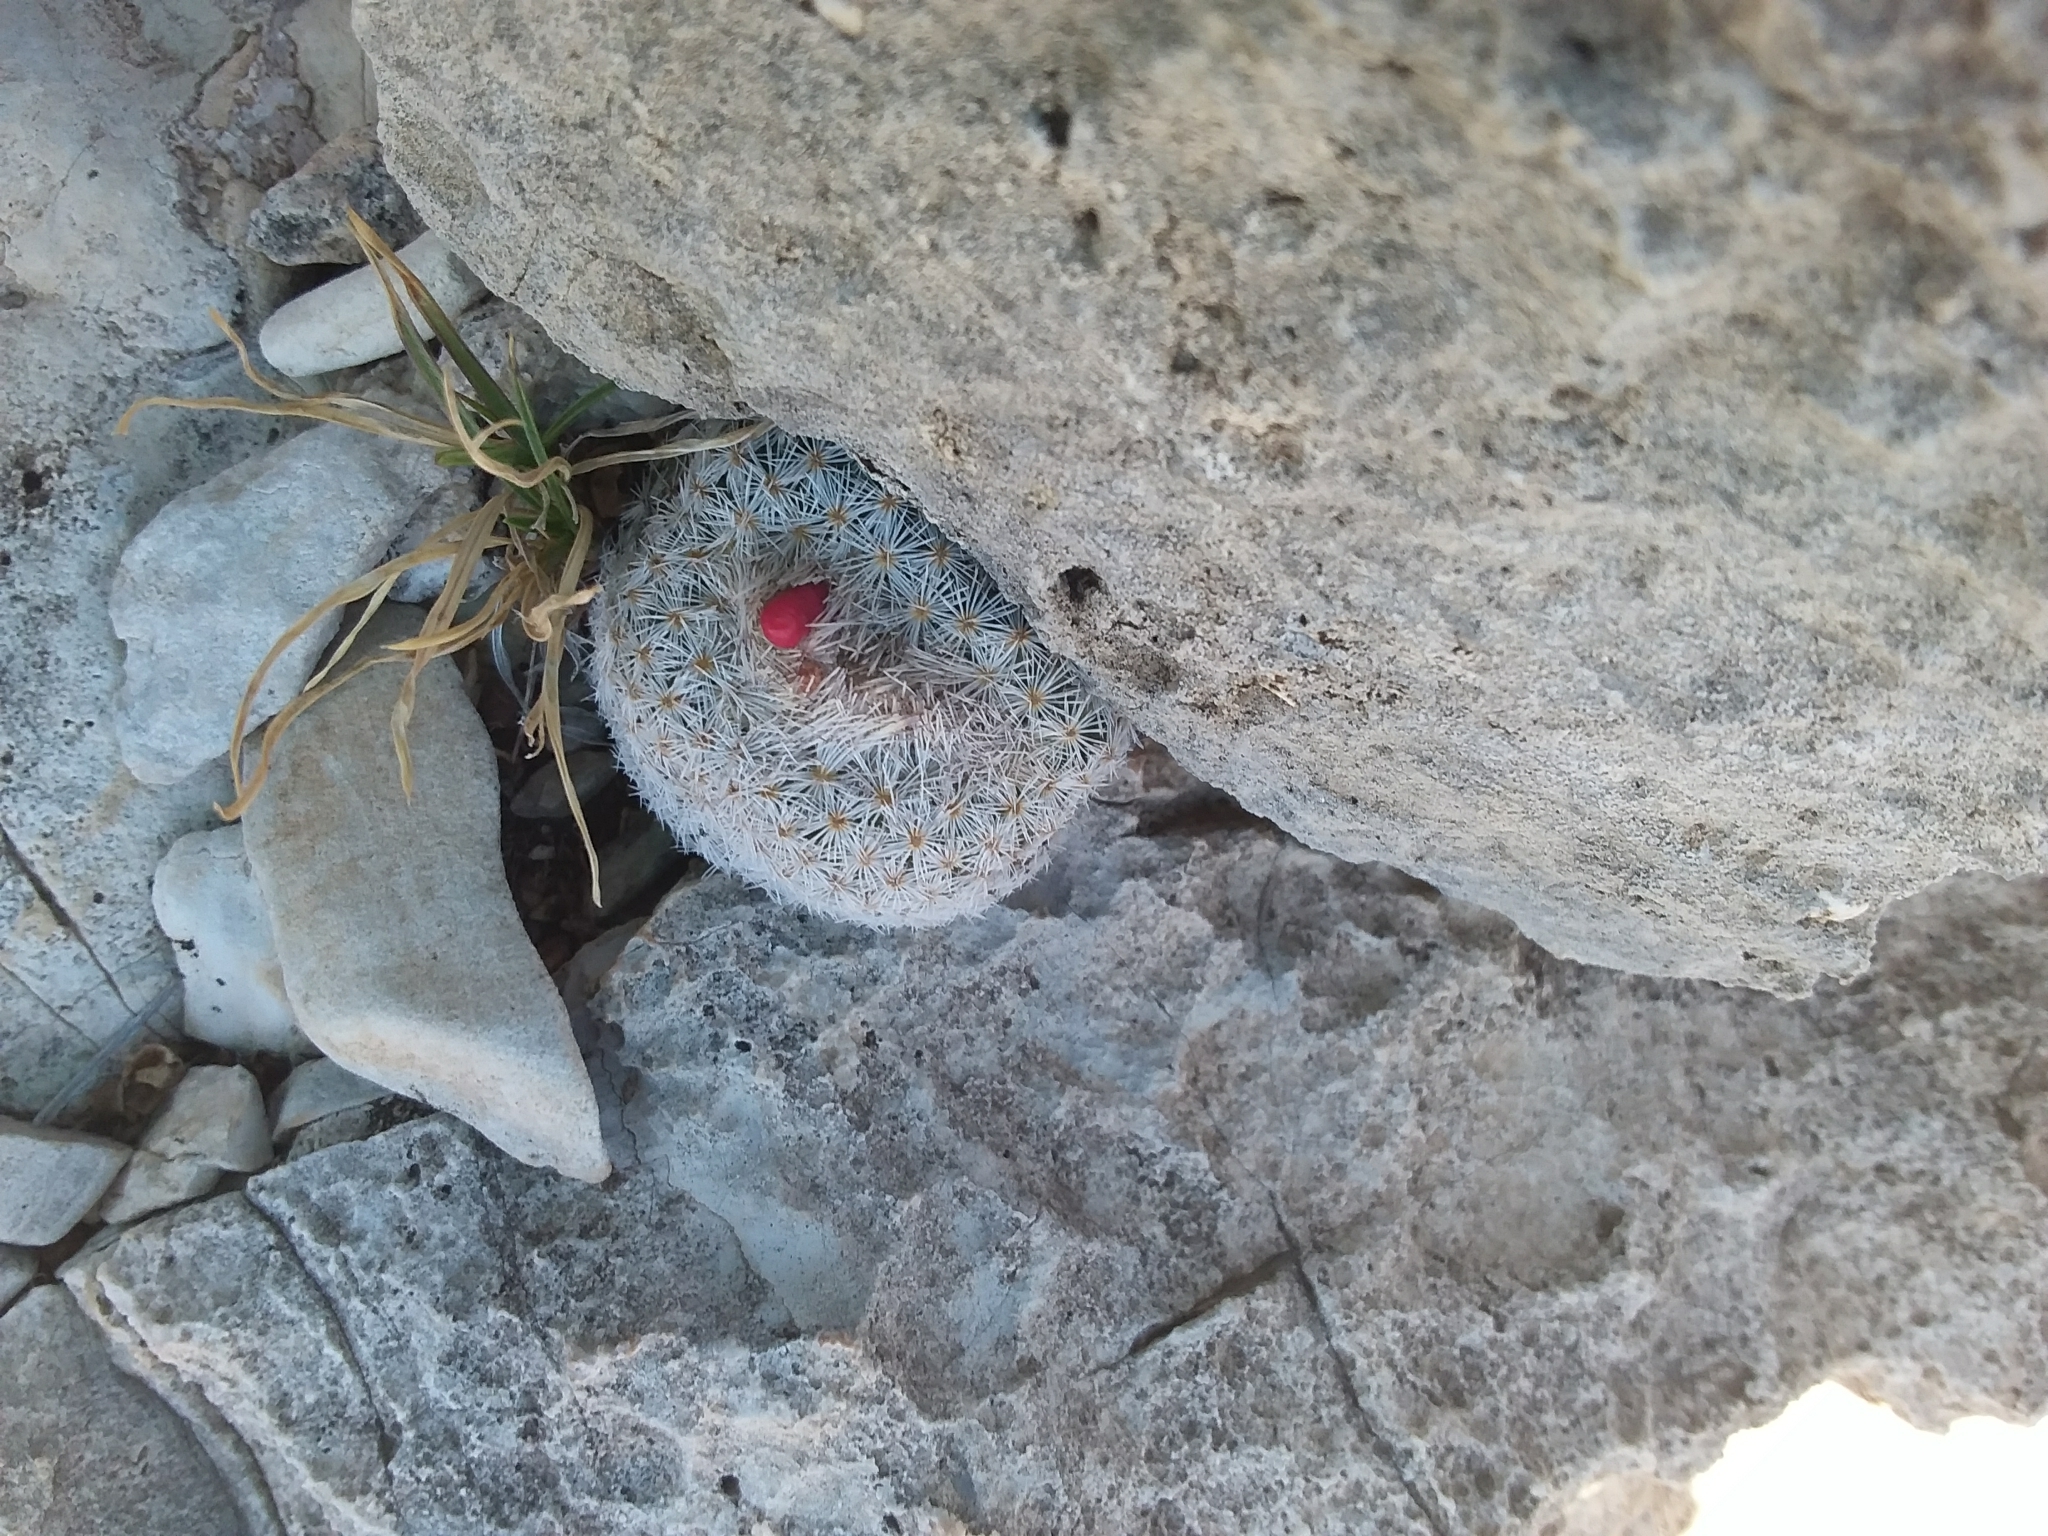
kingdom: Plantae
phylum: Tracheophyta
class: Magnoliopsida
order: Caryophyllales
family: Cactaceae
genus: Epithelantha
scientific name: Epithelantha micromeris
